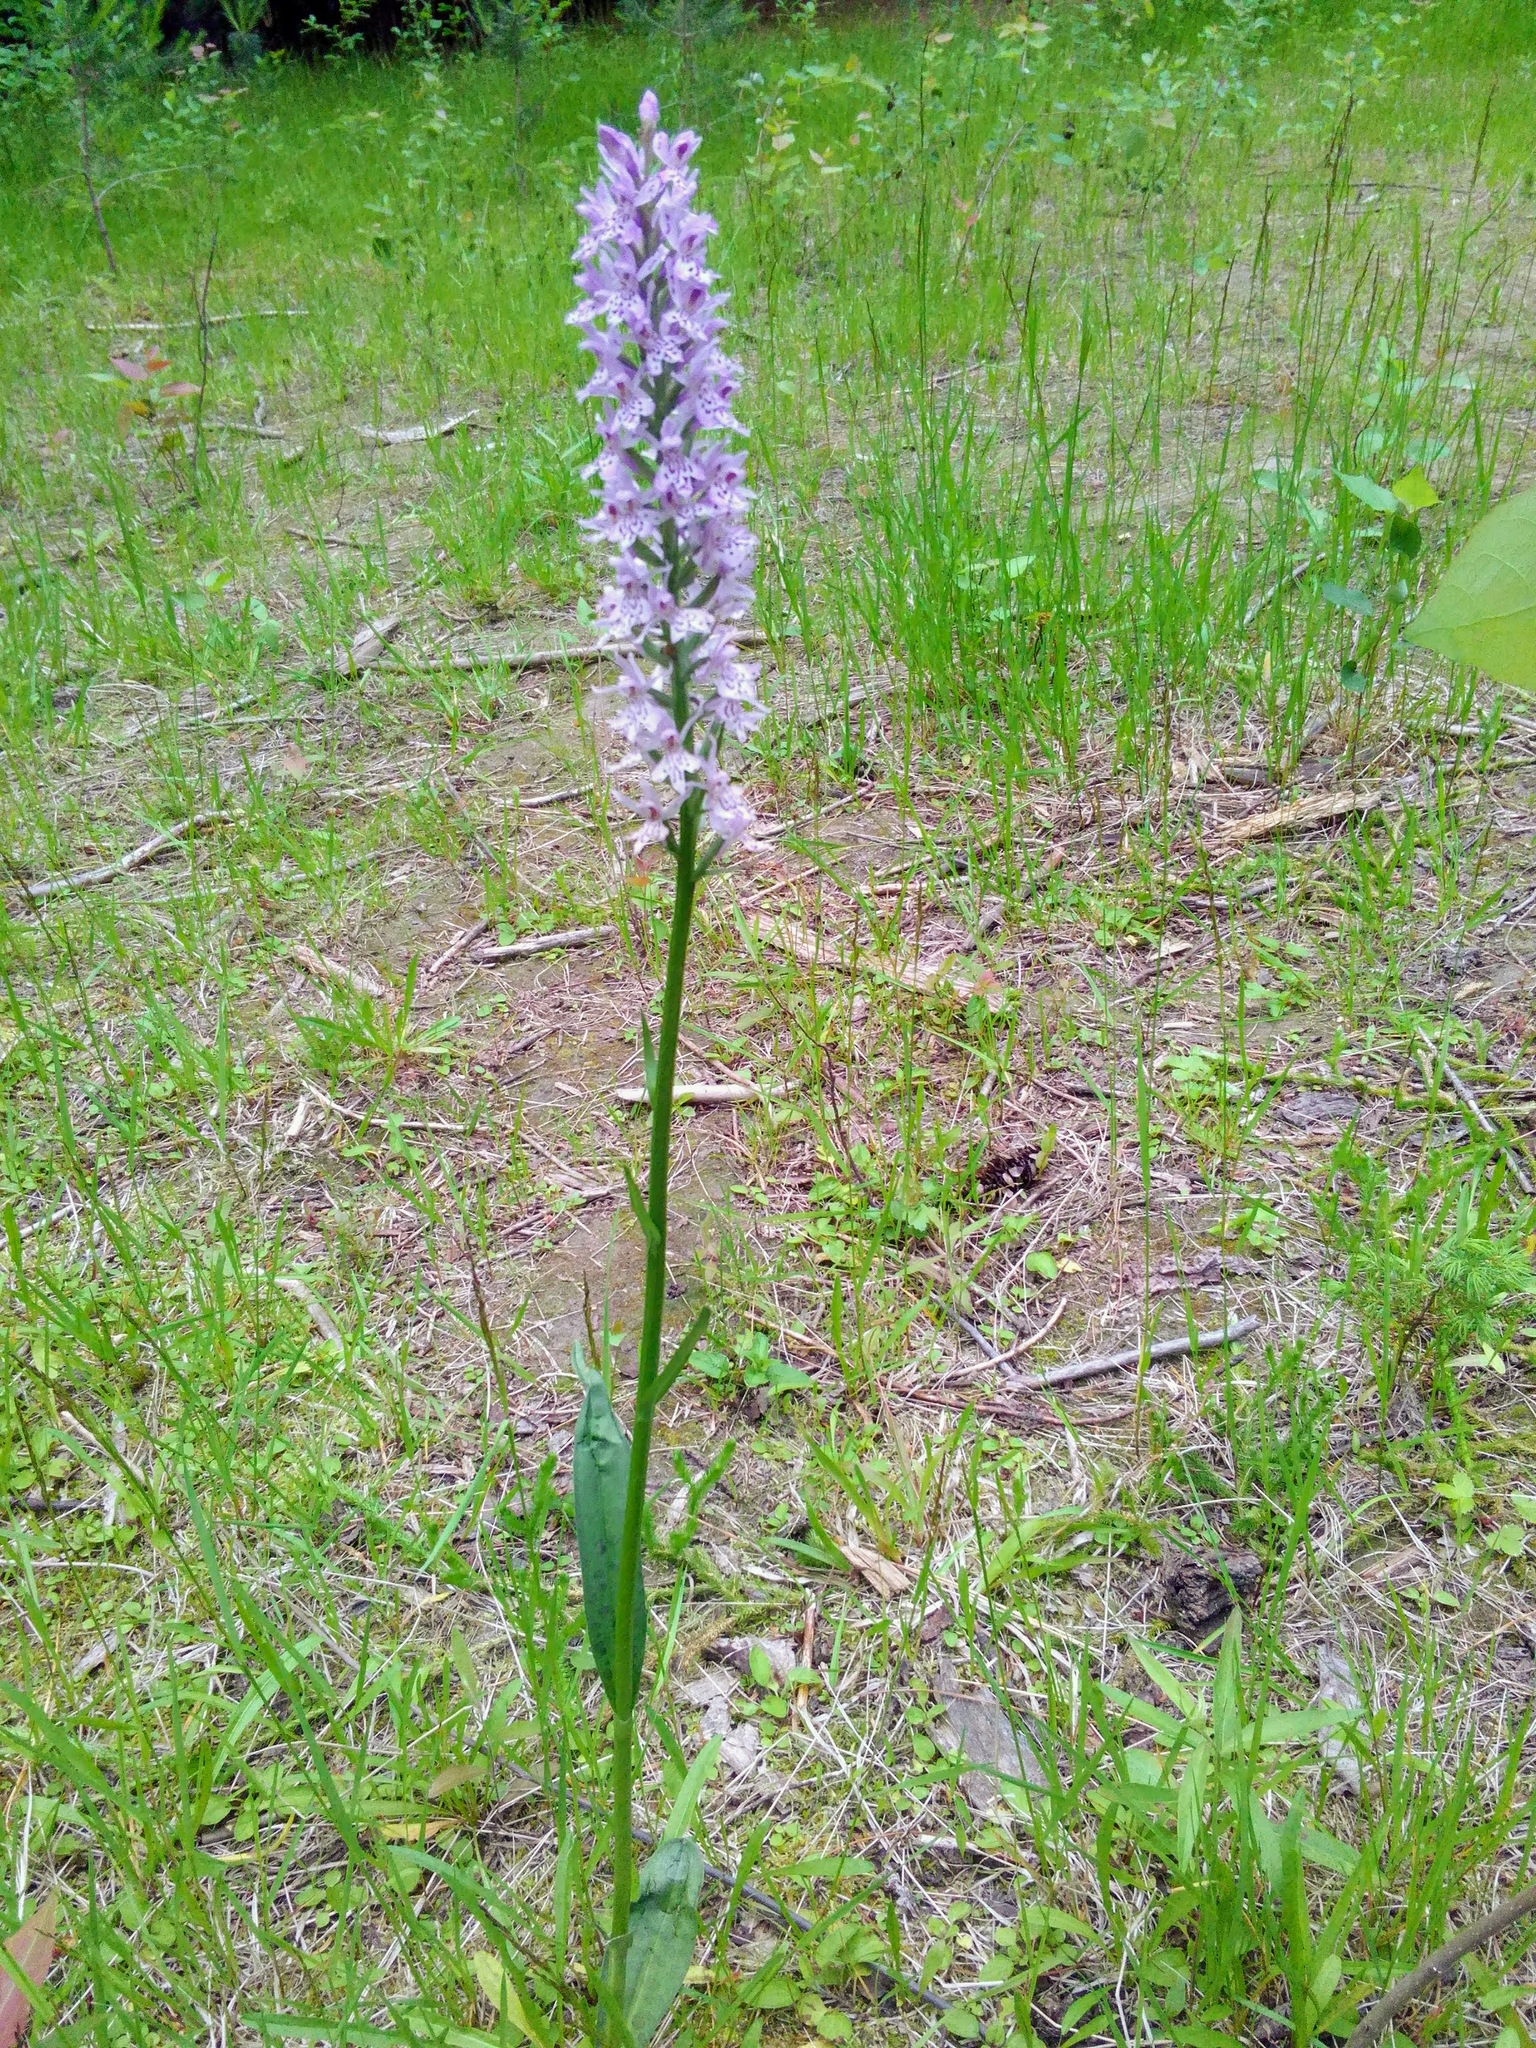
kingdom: Plantae
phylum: Tracheophyta
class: Liliopsida
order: Asparagales
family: Orchidaceae
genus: Dactylorhiza
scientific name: Dactylorhiza maculata
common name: Heath spotted-orchid
